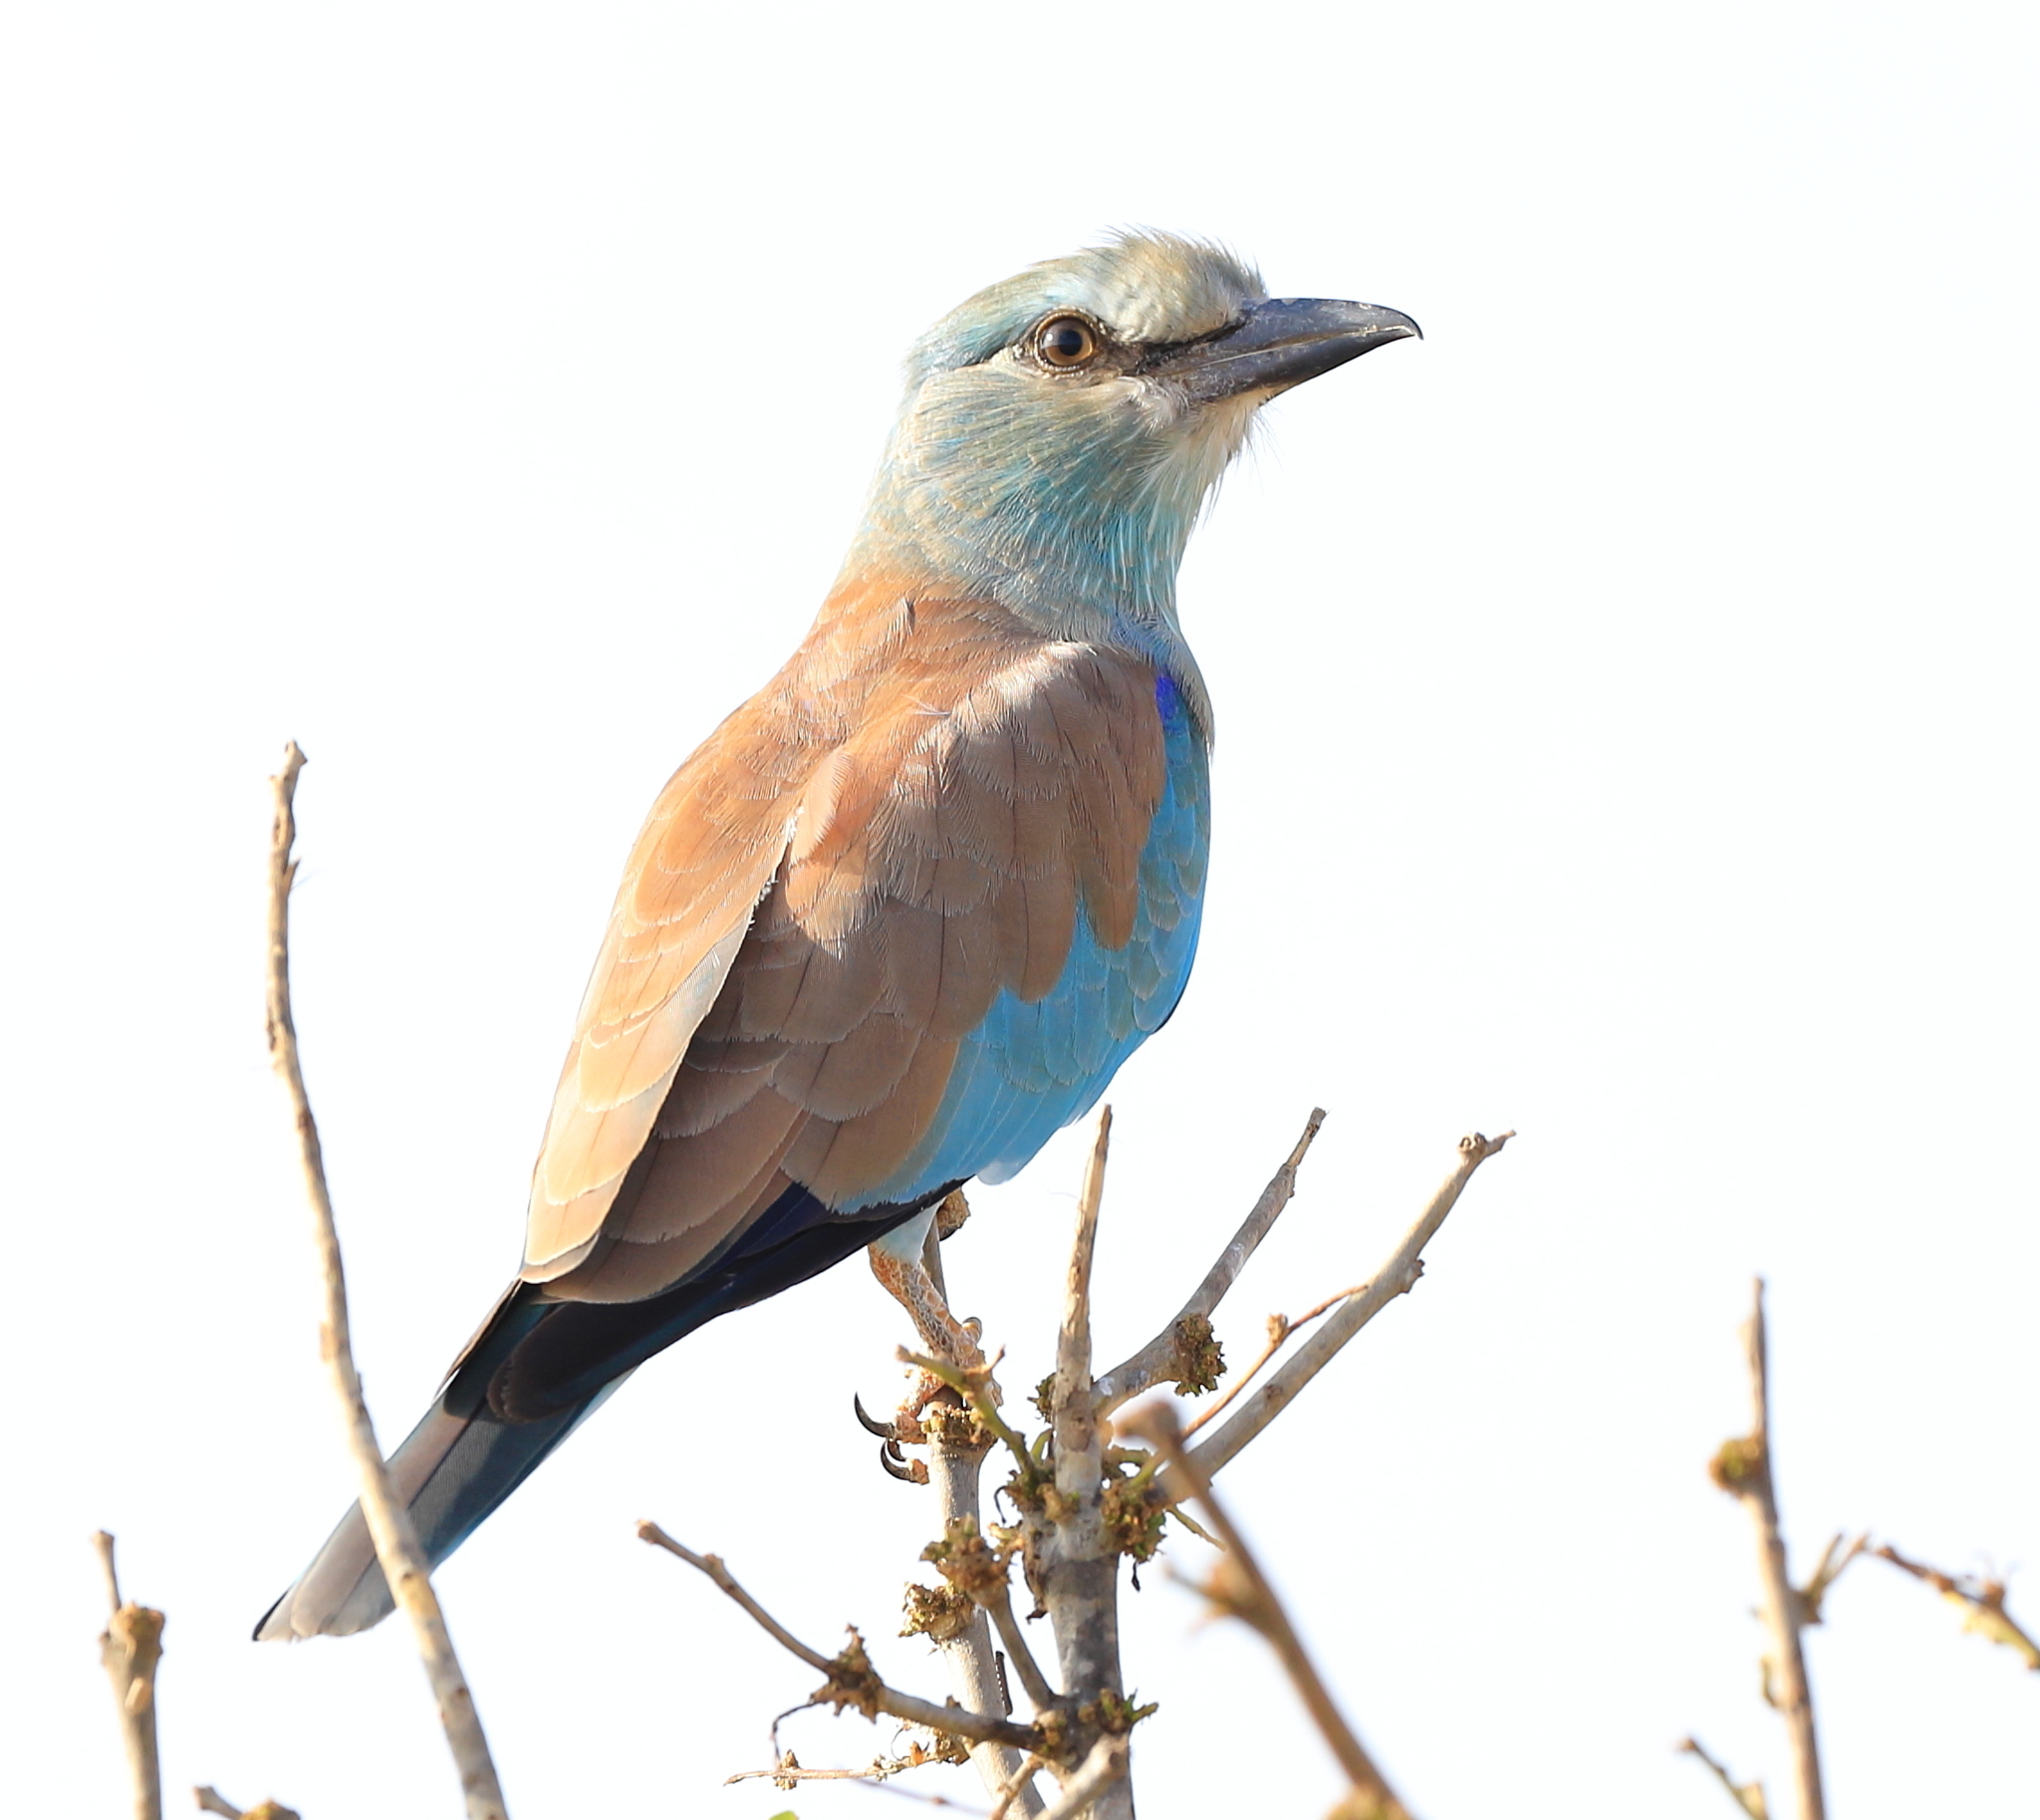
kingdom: Animalia
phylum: Chordata
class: Aves
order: Coraciiformes
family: Coraciidae
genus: Coracias
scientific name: Coracias garrulus
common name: European roller
